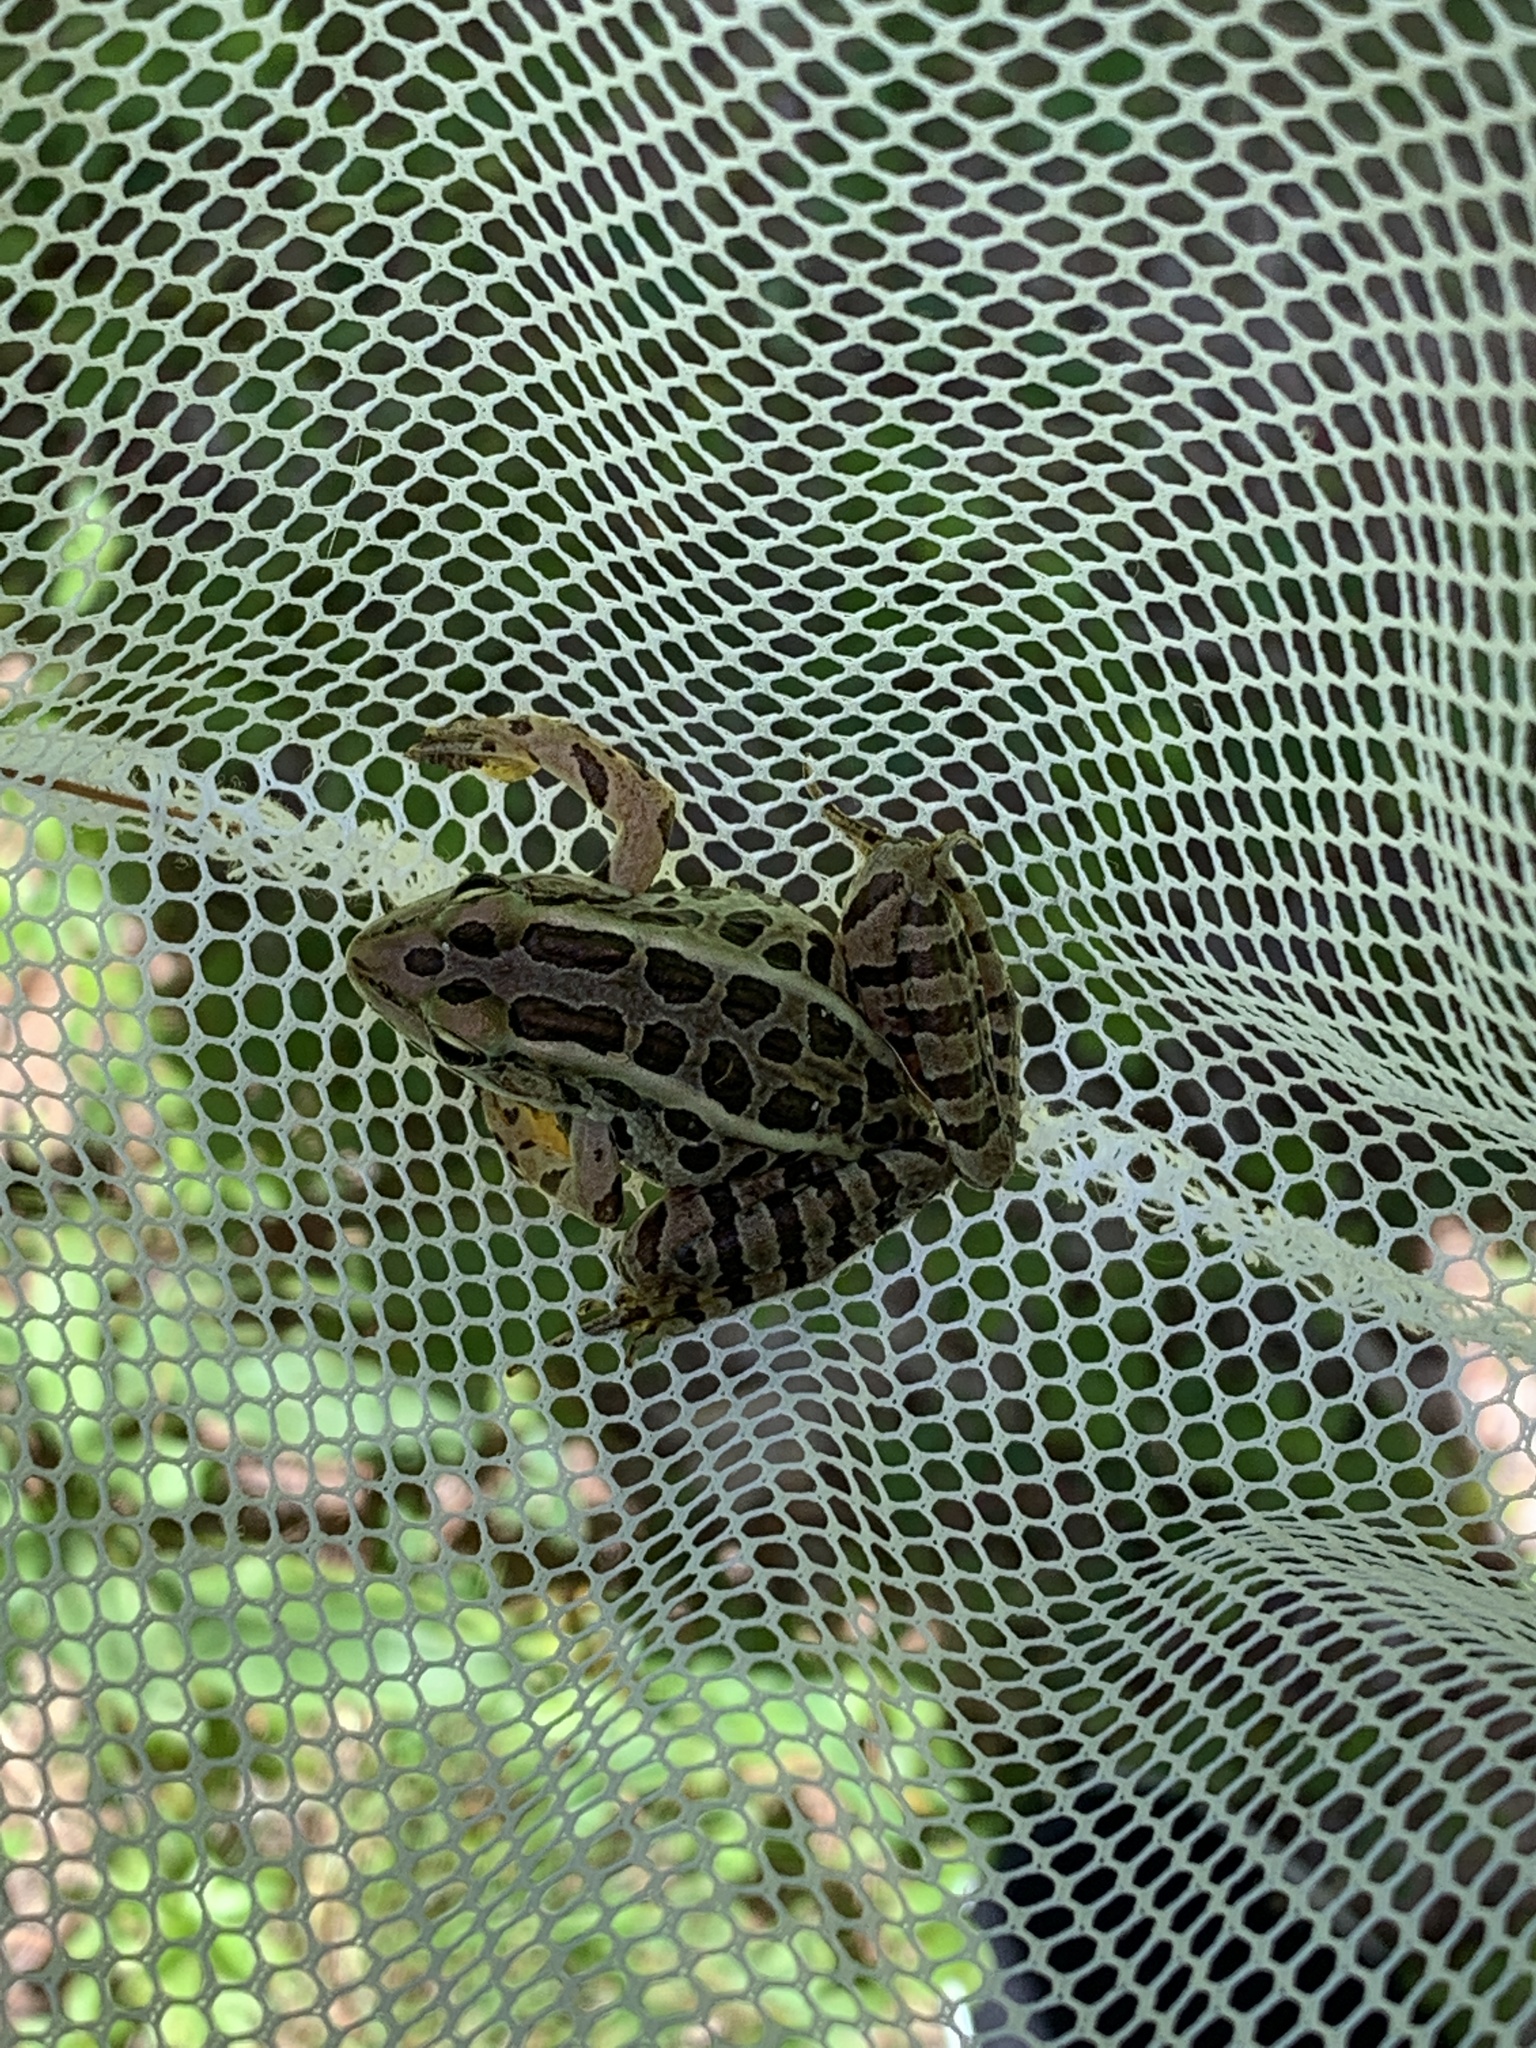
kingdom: Animalia
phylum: Chordata
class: Amphibia
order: Anura
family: Ranidae
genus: Lithobates
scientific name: Lithobates palustris
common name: Pickerel frog
